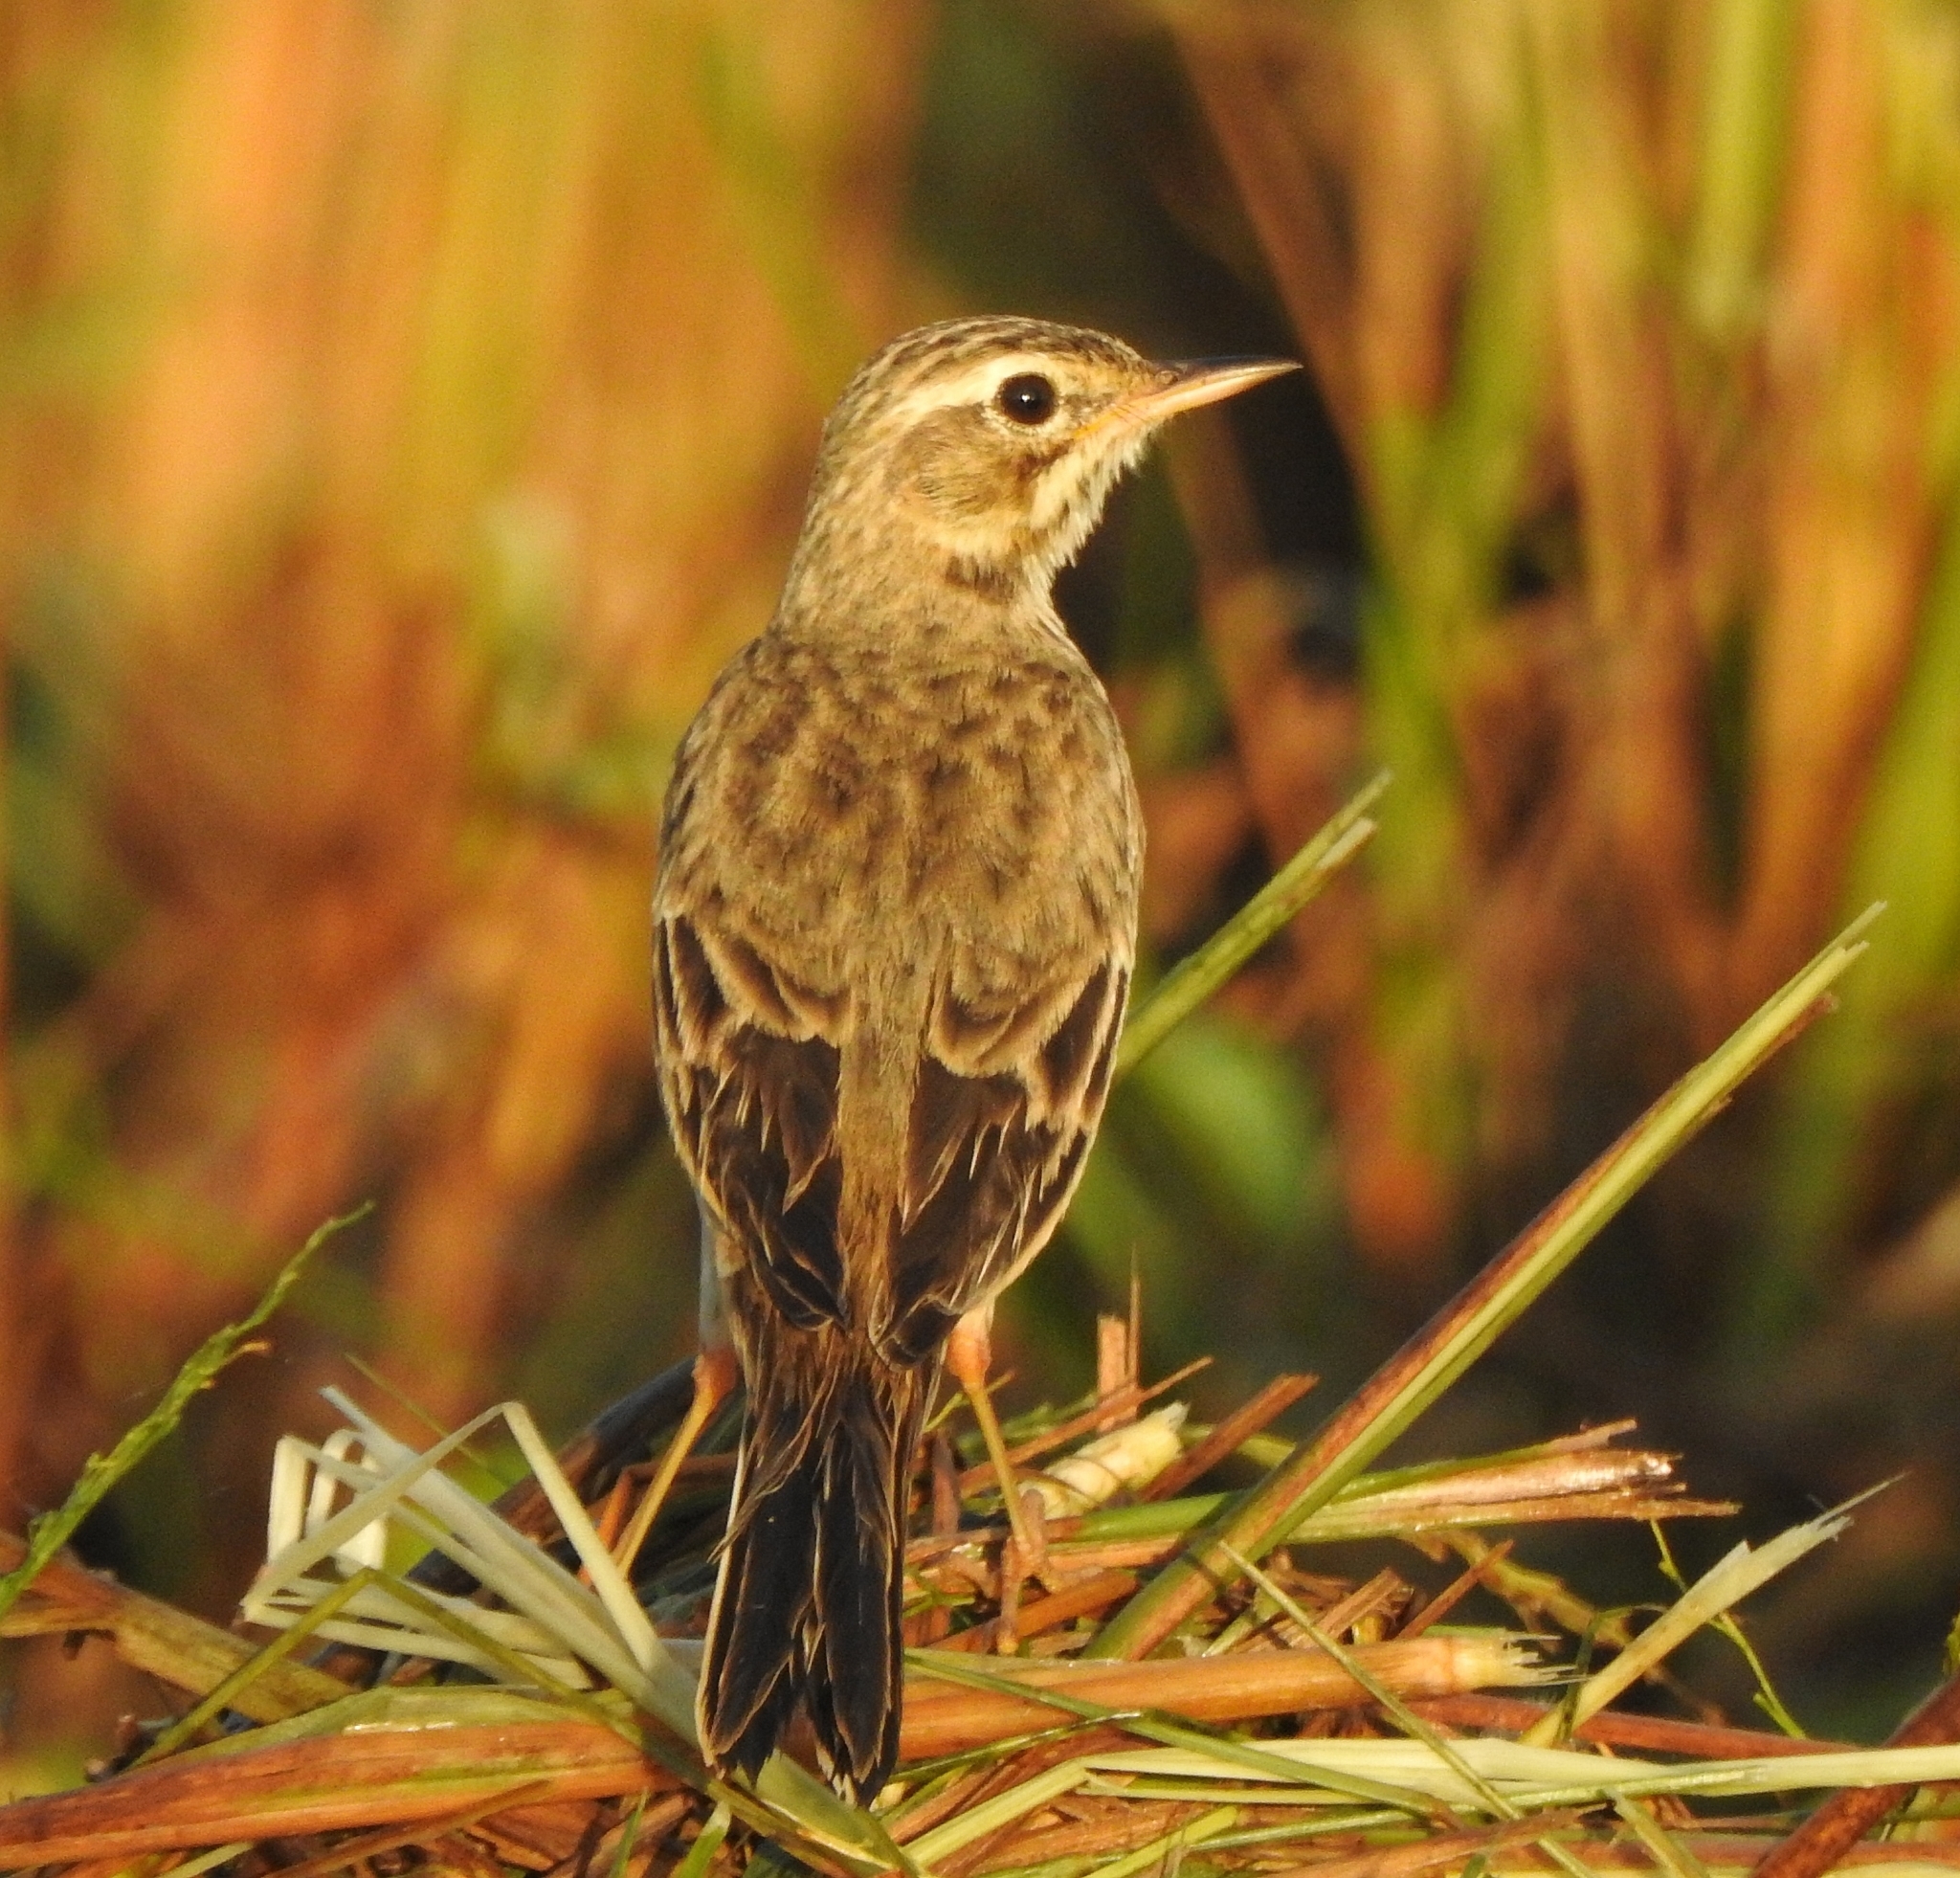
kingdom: Animalia
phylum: Chordata
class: Aves
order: Passeriformes
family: Motacillidae
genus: Anthus
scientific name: Anthus rufulus
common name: Paddyfield pipit
